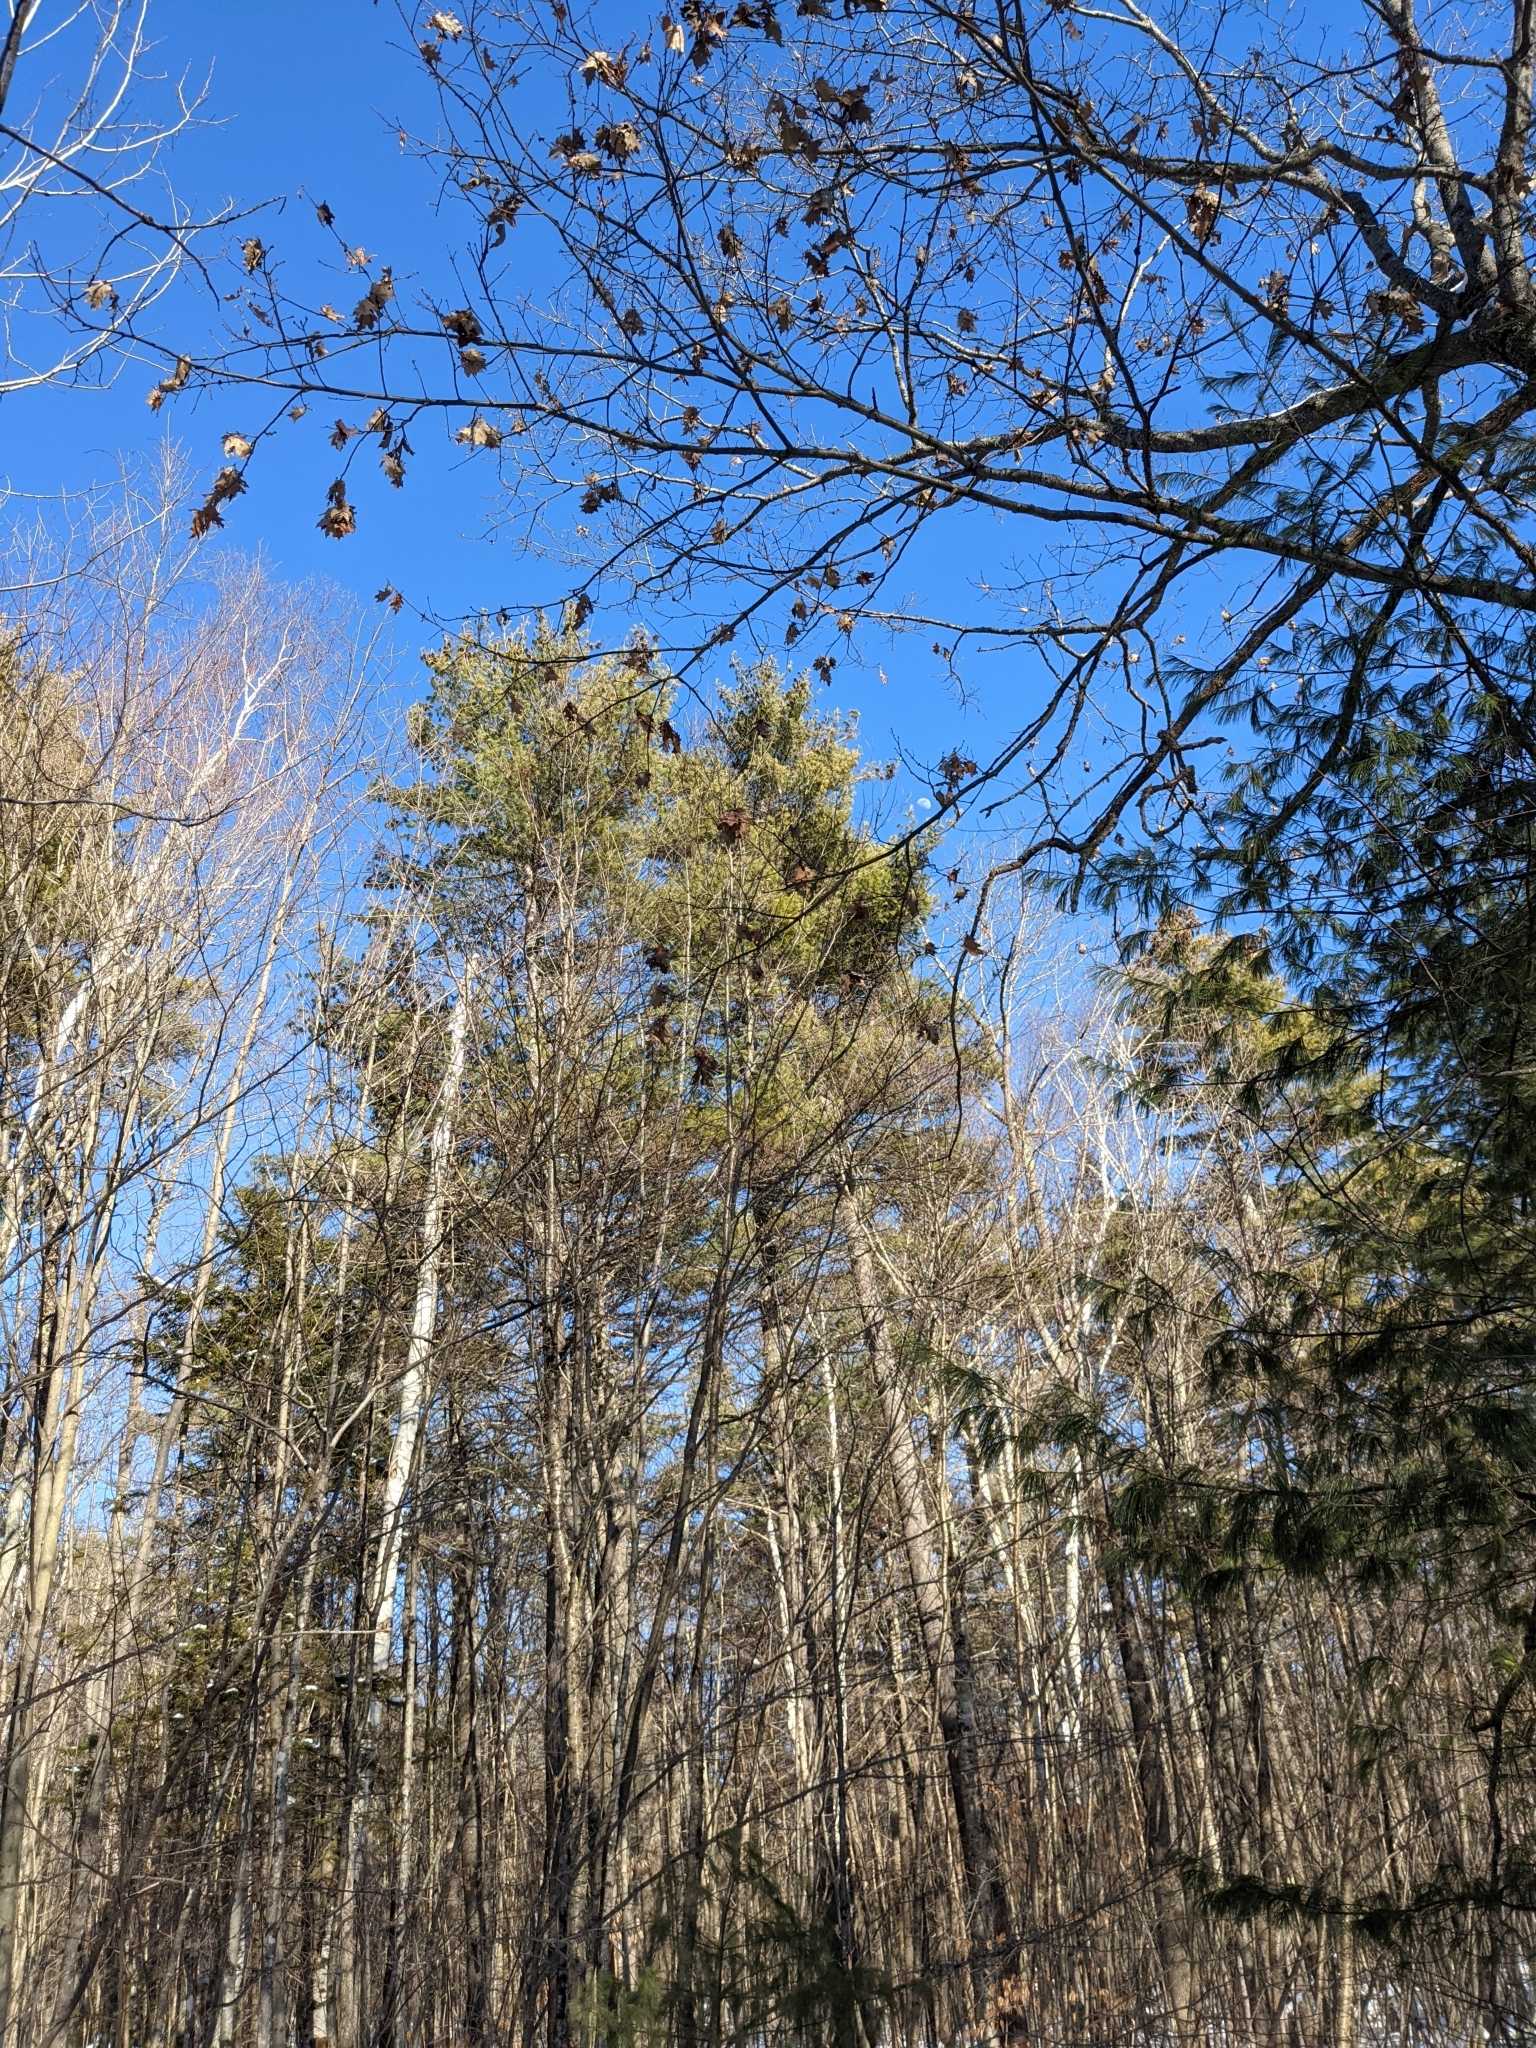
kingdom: Plantae
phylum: Tracheophyta
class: Pinopsida
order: Pinales
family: Pinaceae
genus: Pinus
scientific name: Pinus strobus
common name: Weymouth pine
